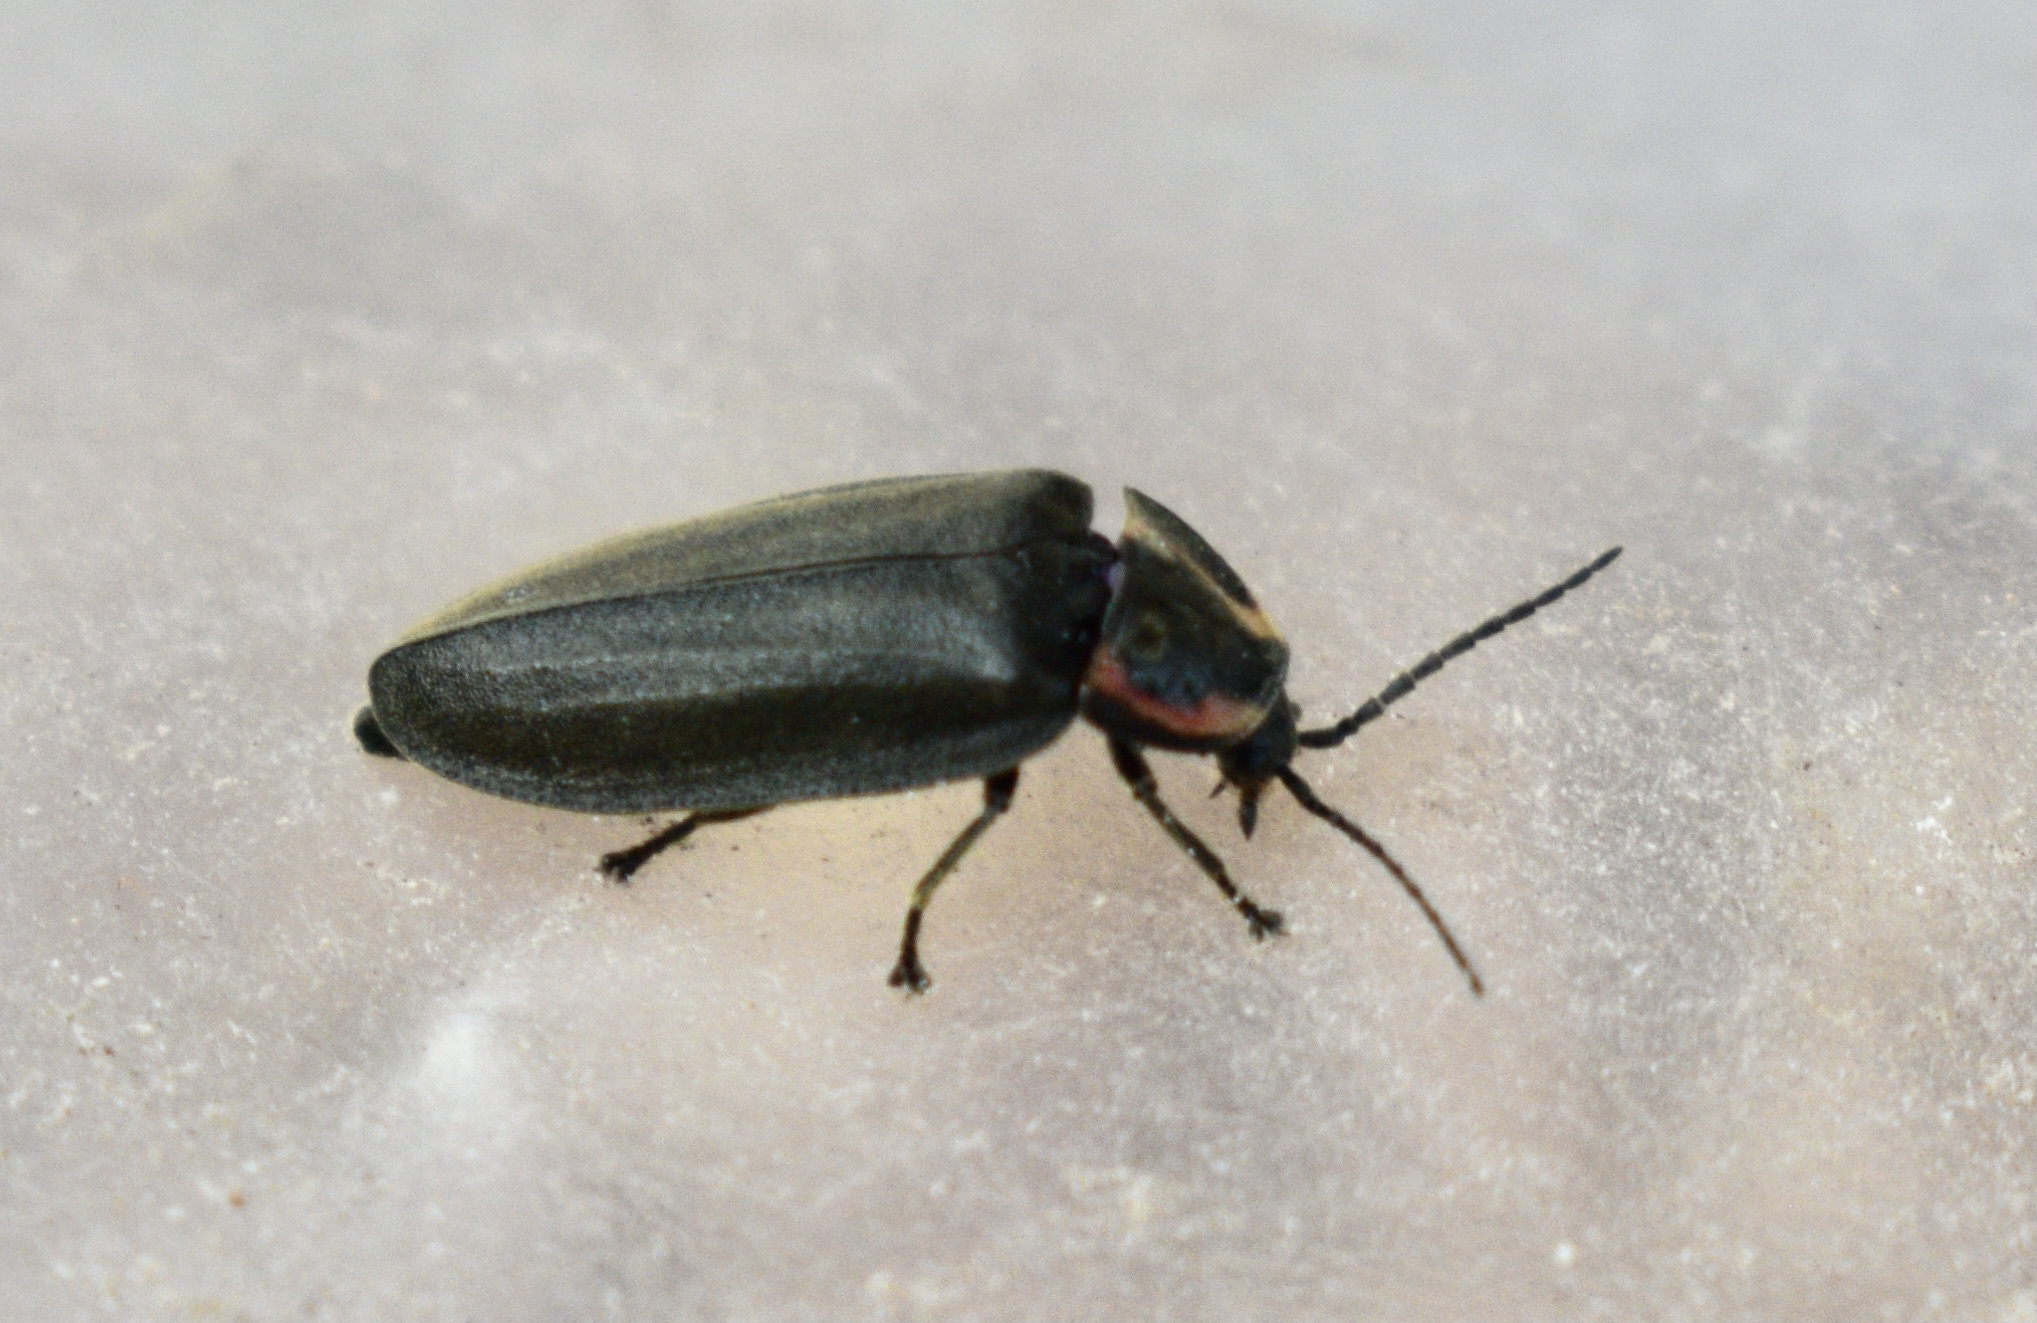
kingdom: Animalia
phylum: Arthropoda
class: Insecta
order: Coleoptera
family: Lampyridae
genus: Photinus
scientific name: Photinus corrusca
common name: Winter firefly
